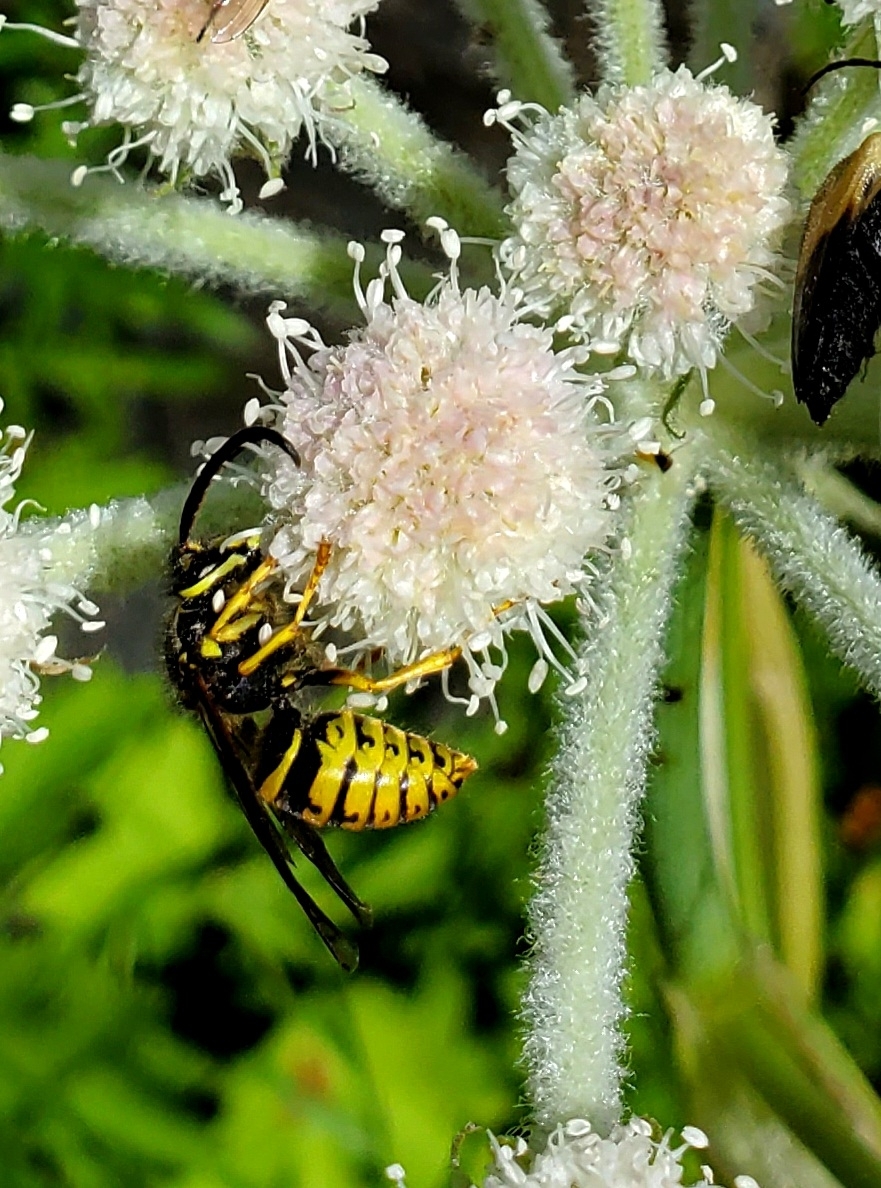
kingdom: Animalia
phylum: Arthropoda
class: Insecta
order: Hymenoptera
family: Vespidae
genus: Dolichovespula
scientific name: Dolichovespula arenaria
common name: Aerial yellowjacket
